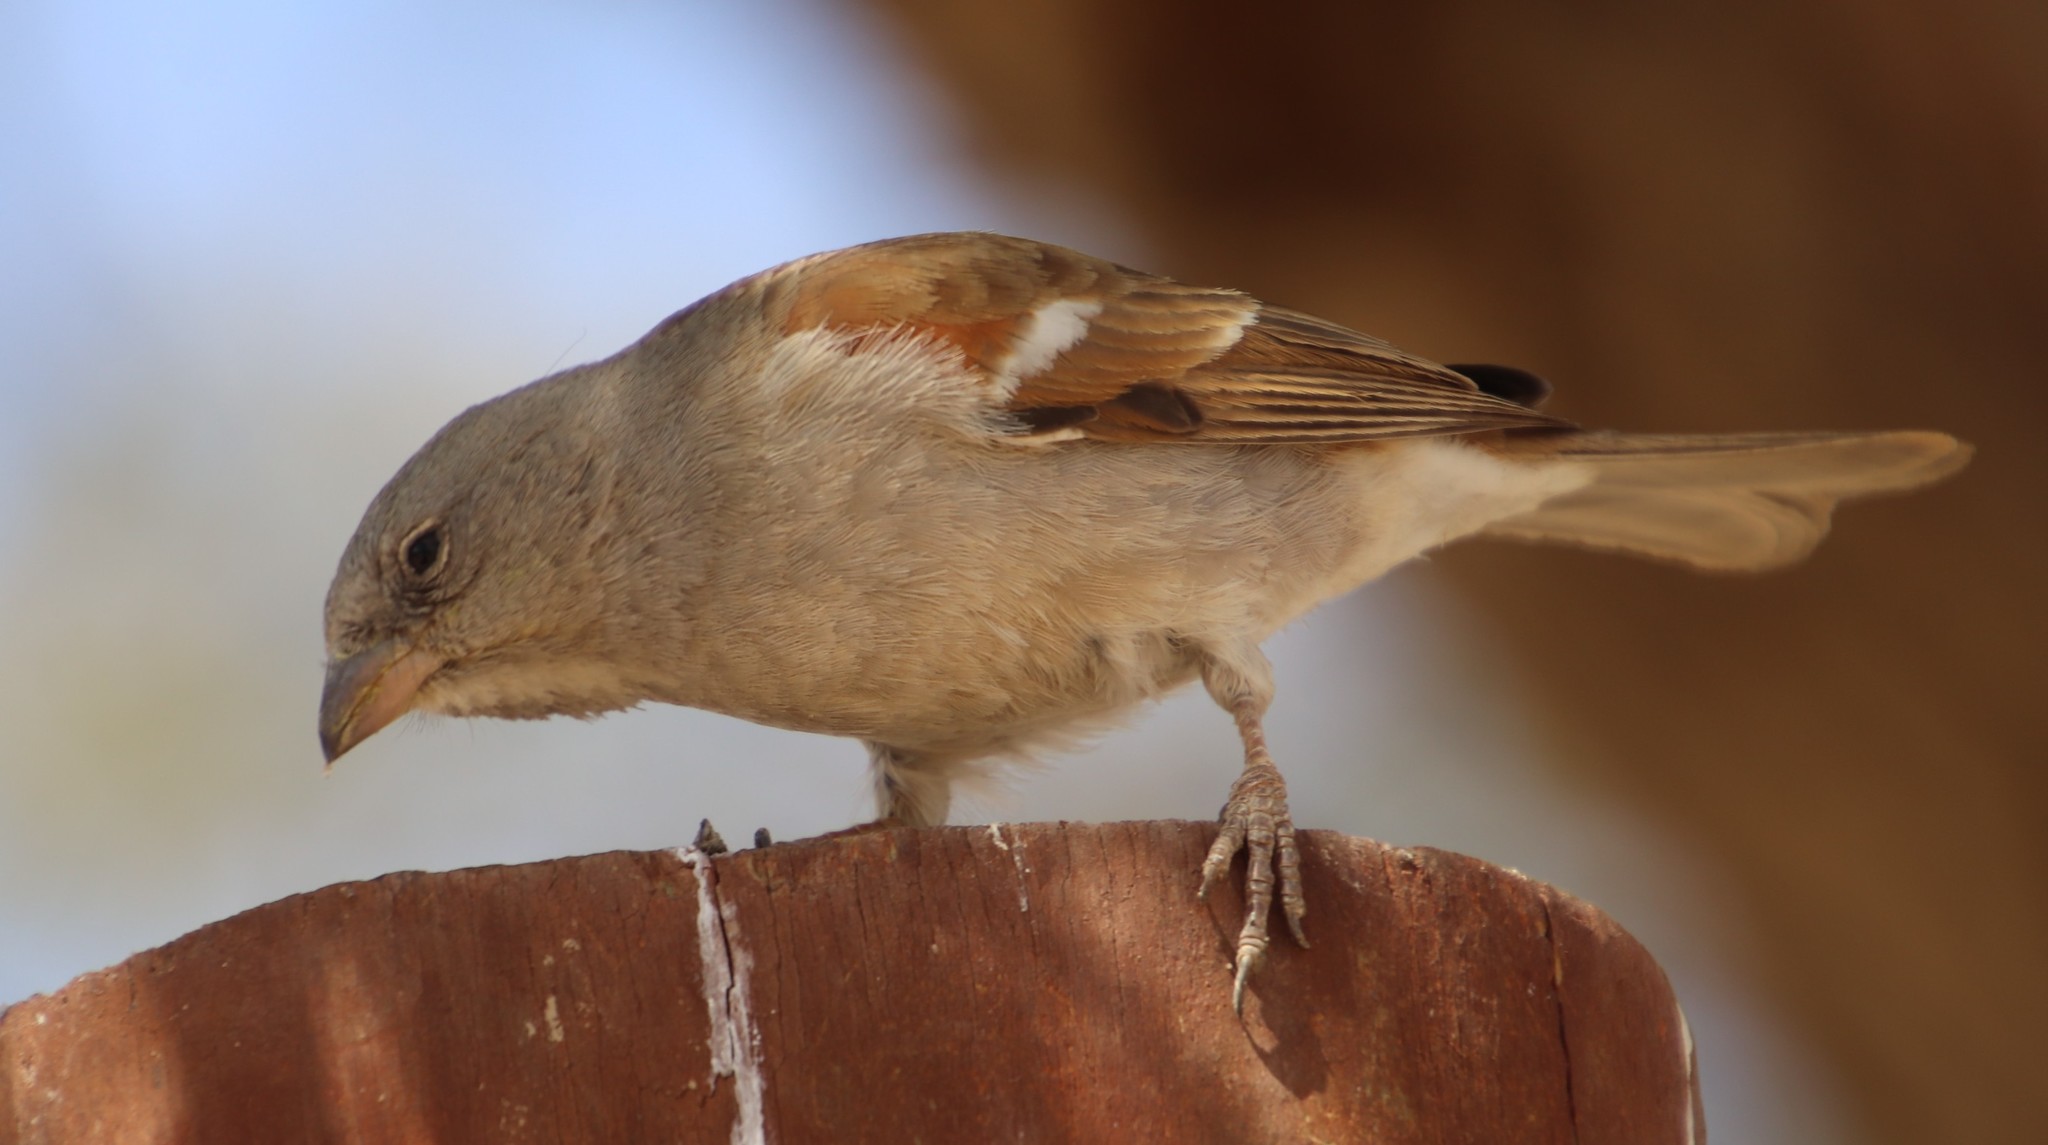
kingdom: Animalia
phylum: Chordata
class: Aves
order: Passeriformes
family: Passeridae
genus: Passer
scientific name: Passer diffusus
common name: Southern grey-headed sparrow
